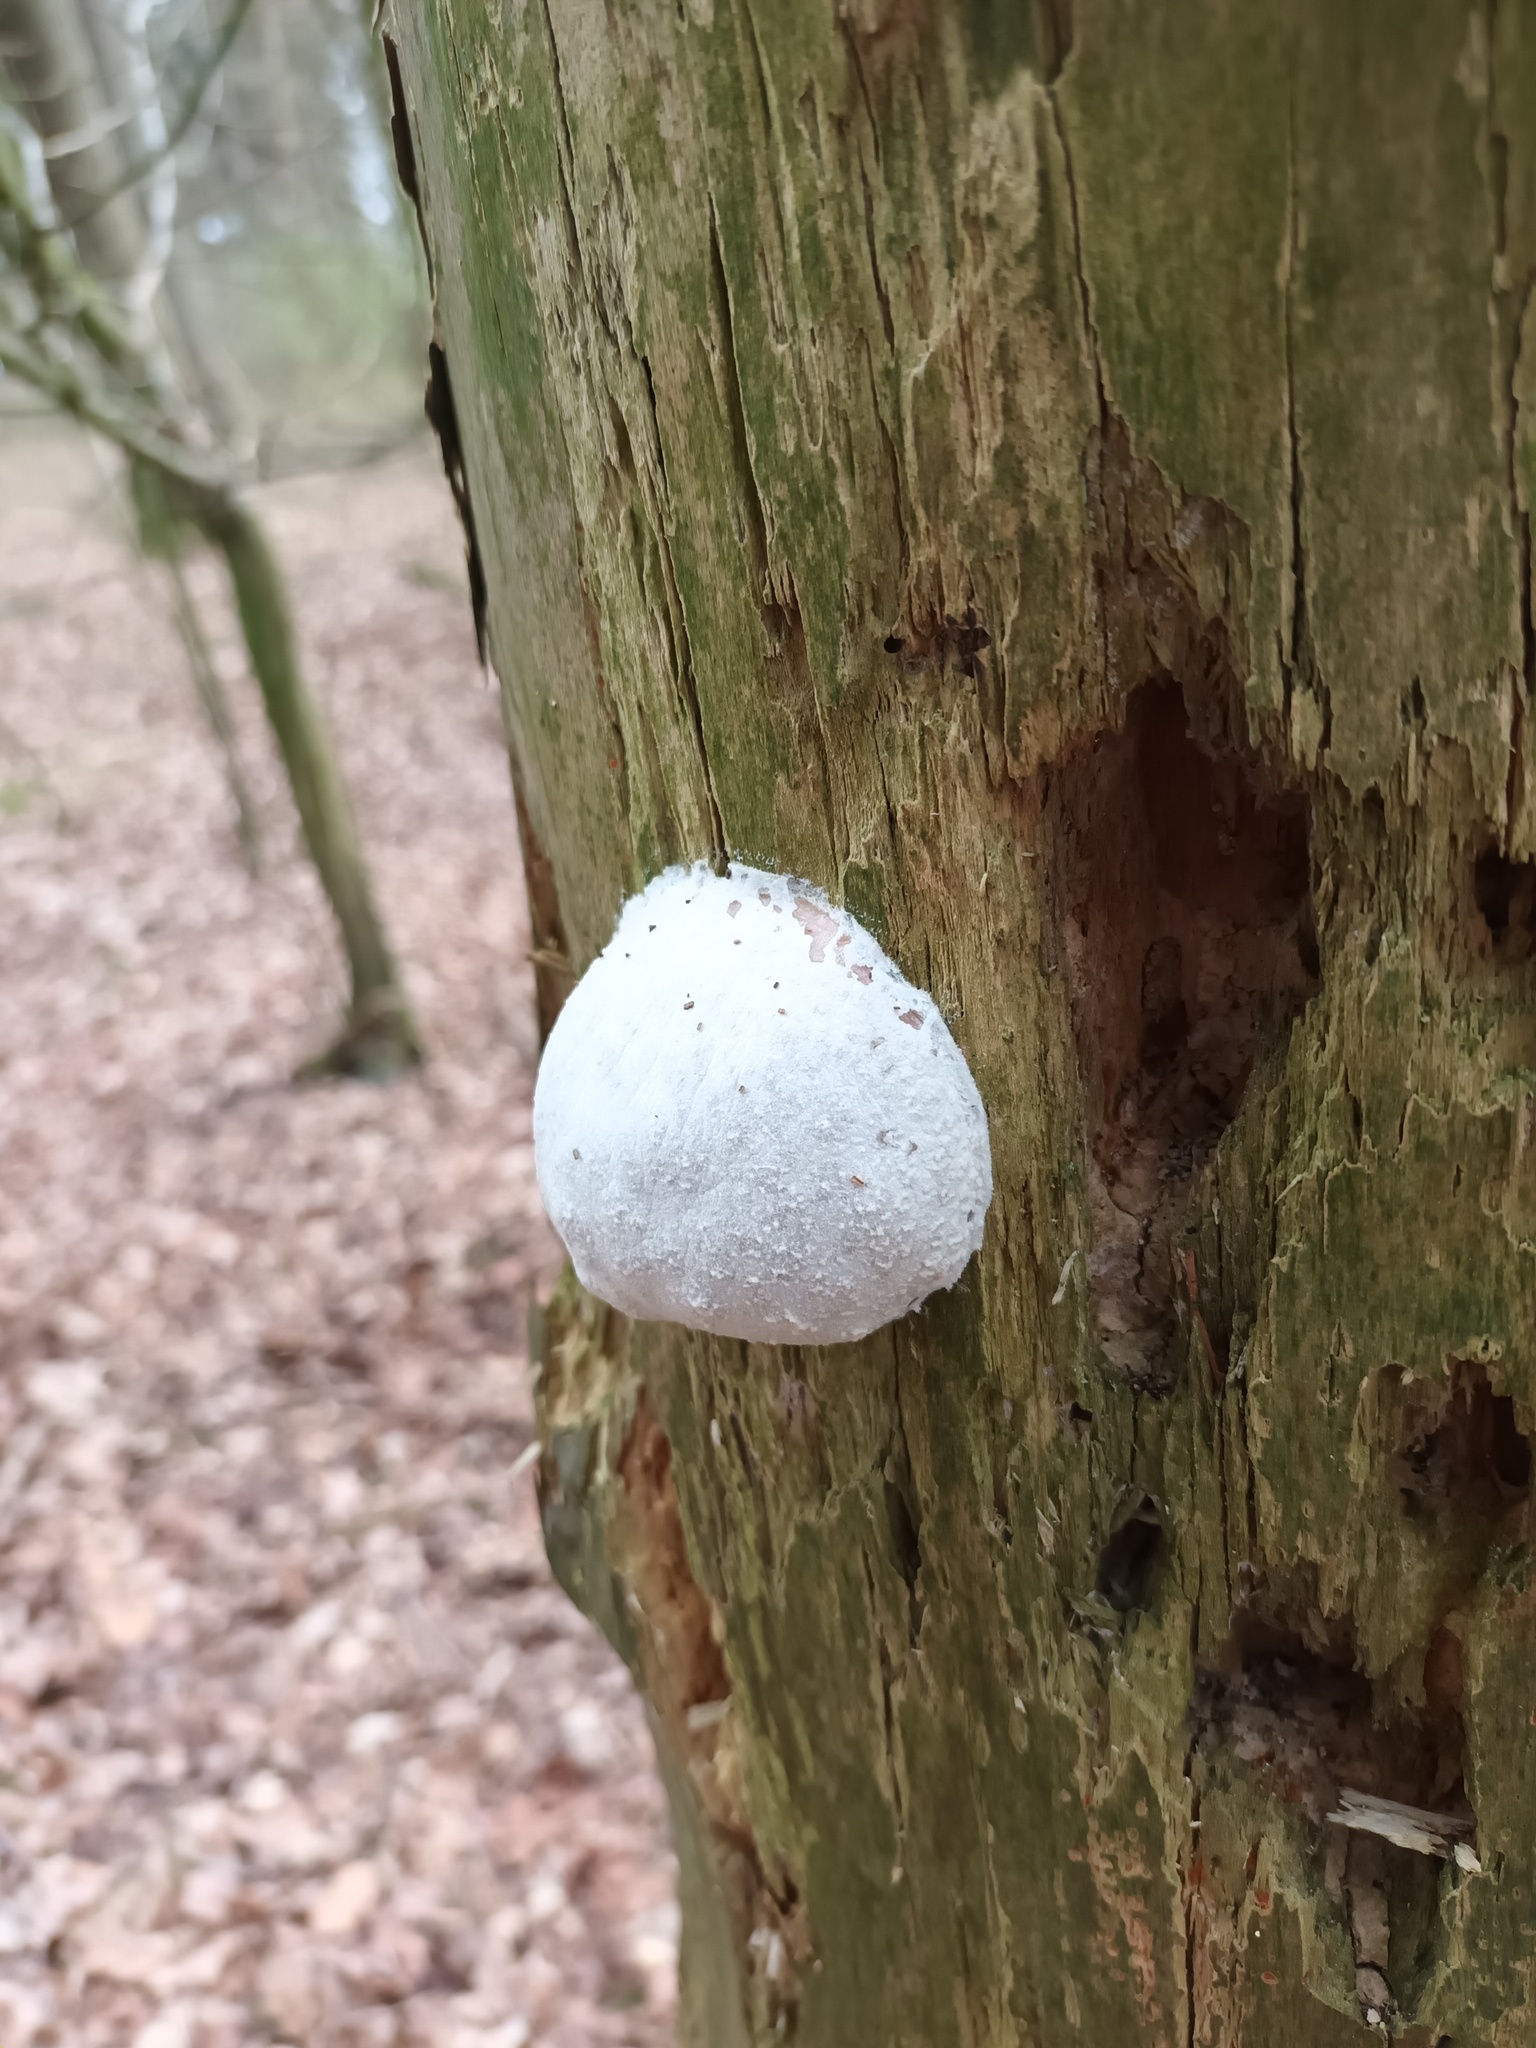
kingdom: Protozoa
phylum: Mycetozoa
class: Myxomycetes
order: Cribrariales
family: Tubiferaceae
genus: Reticularia
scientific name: Reticularia lycoperdon
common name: False puffball
